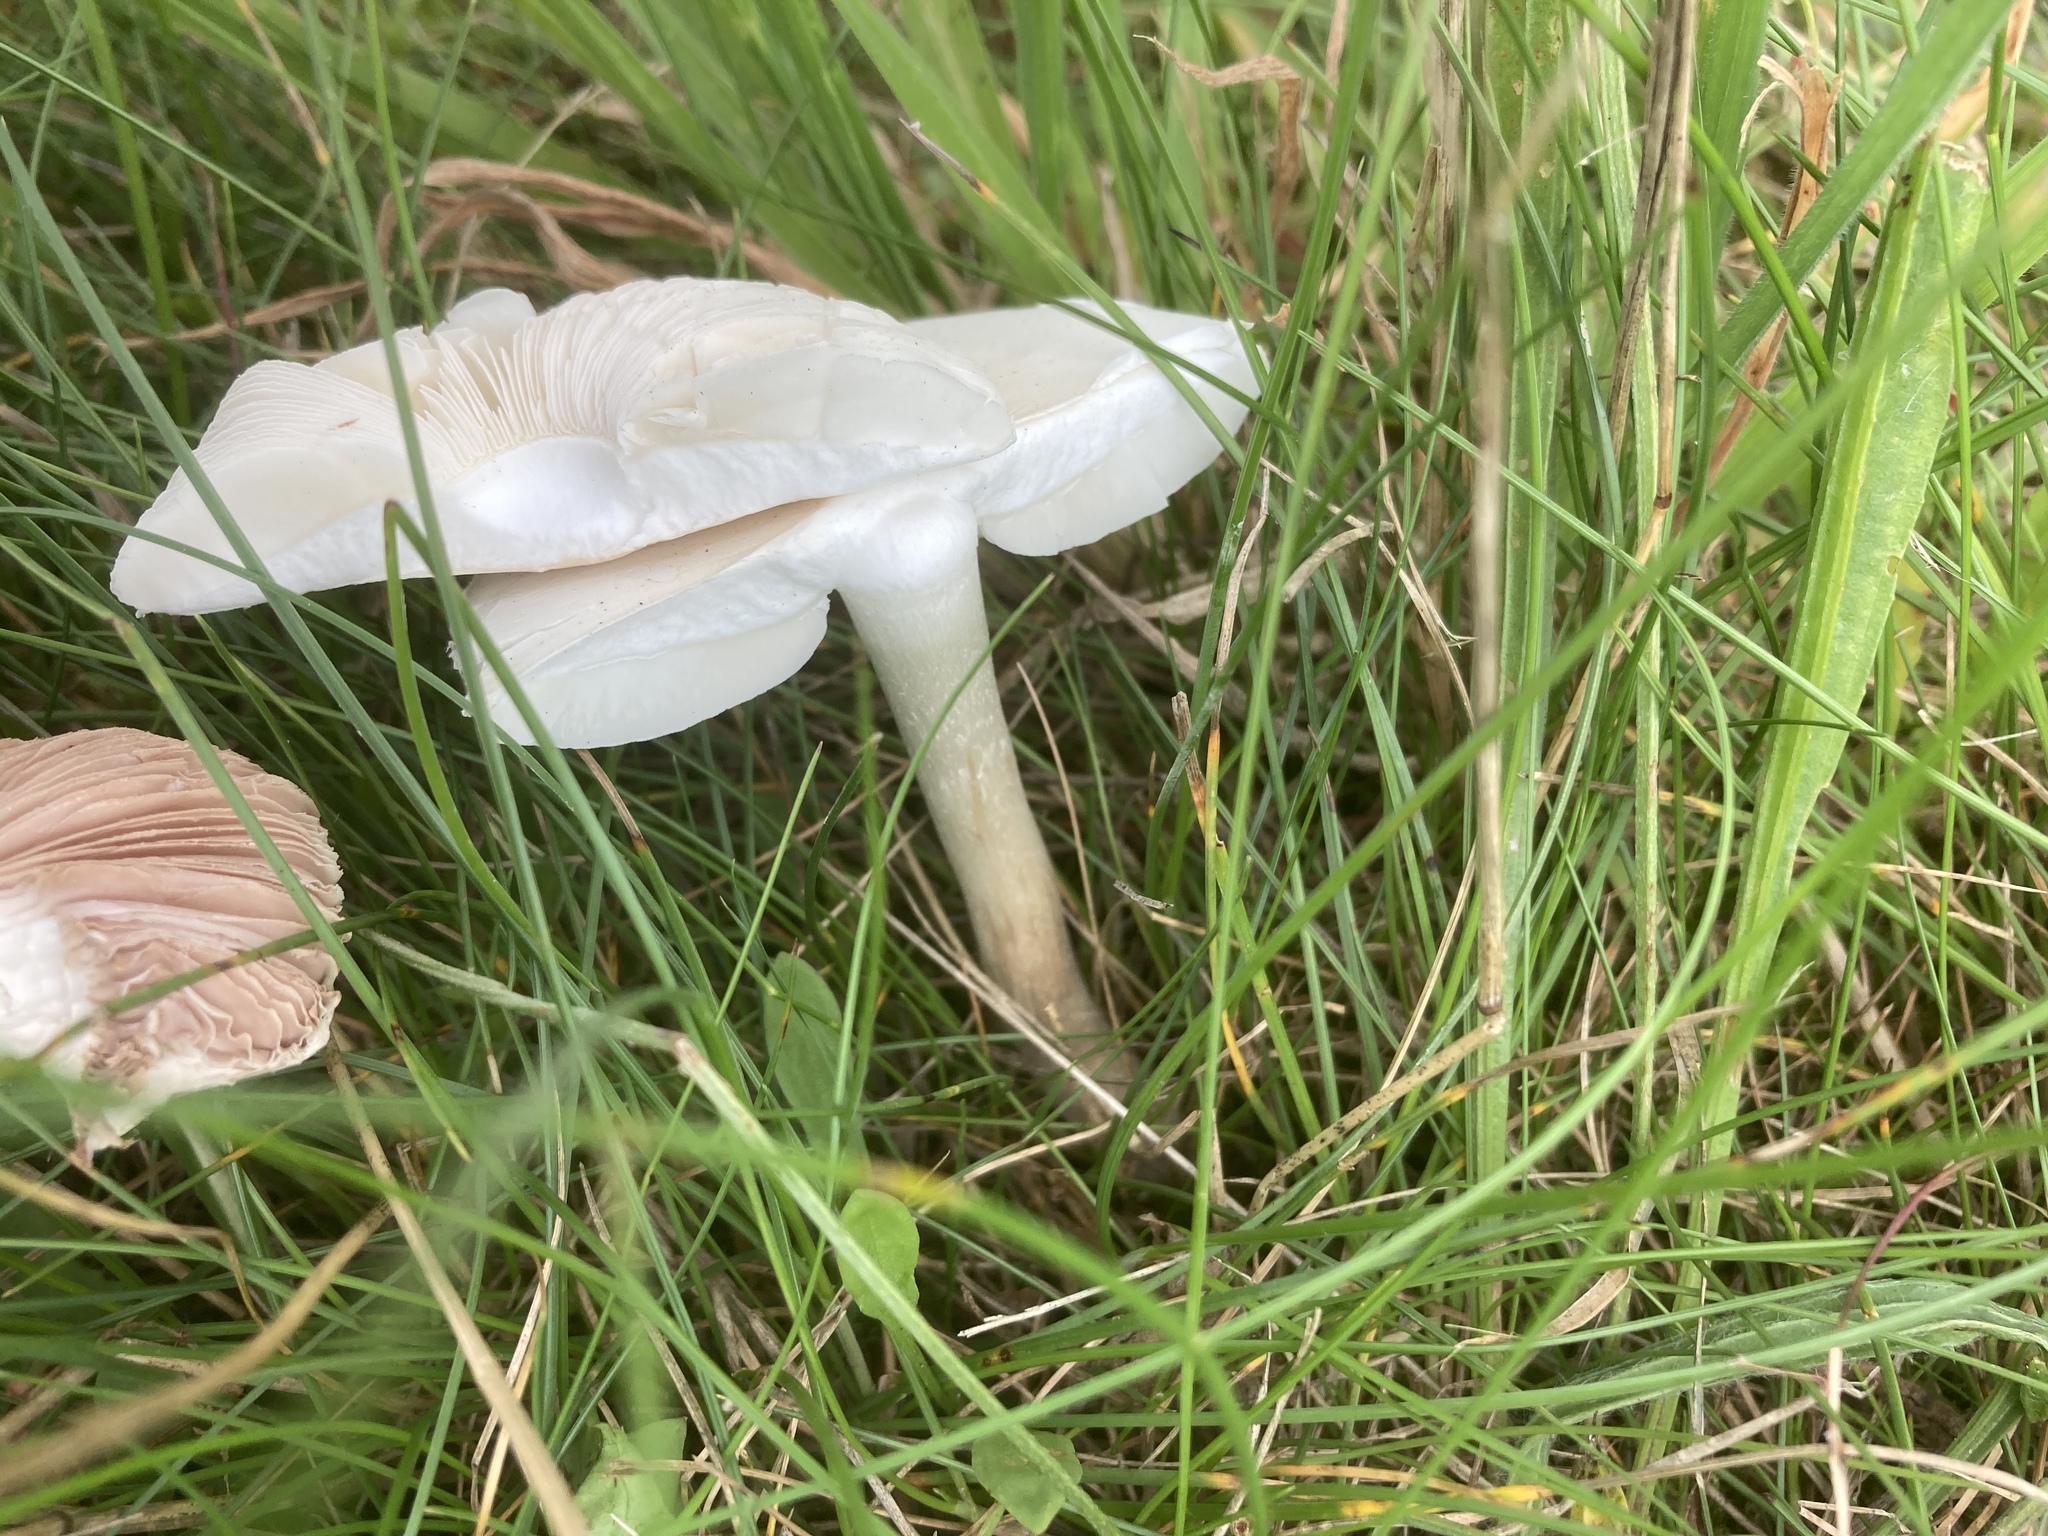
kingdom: Fungi
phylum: Basidiomycota
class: Agaricomycetes
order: Agaricales
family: Agaricaceae
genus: Leucoagaricus
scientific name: Leucoagaricus leucothites
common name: White dapperling
